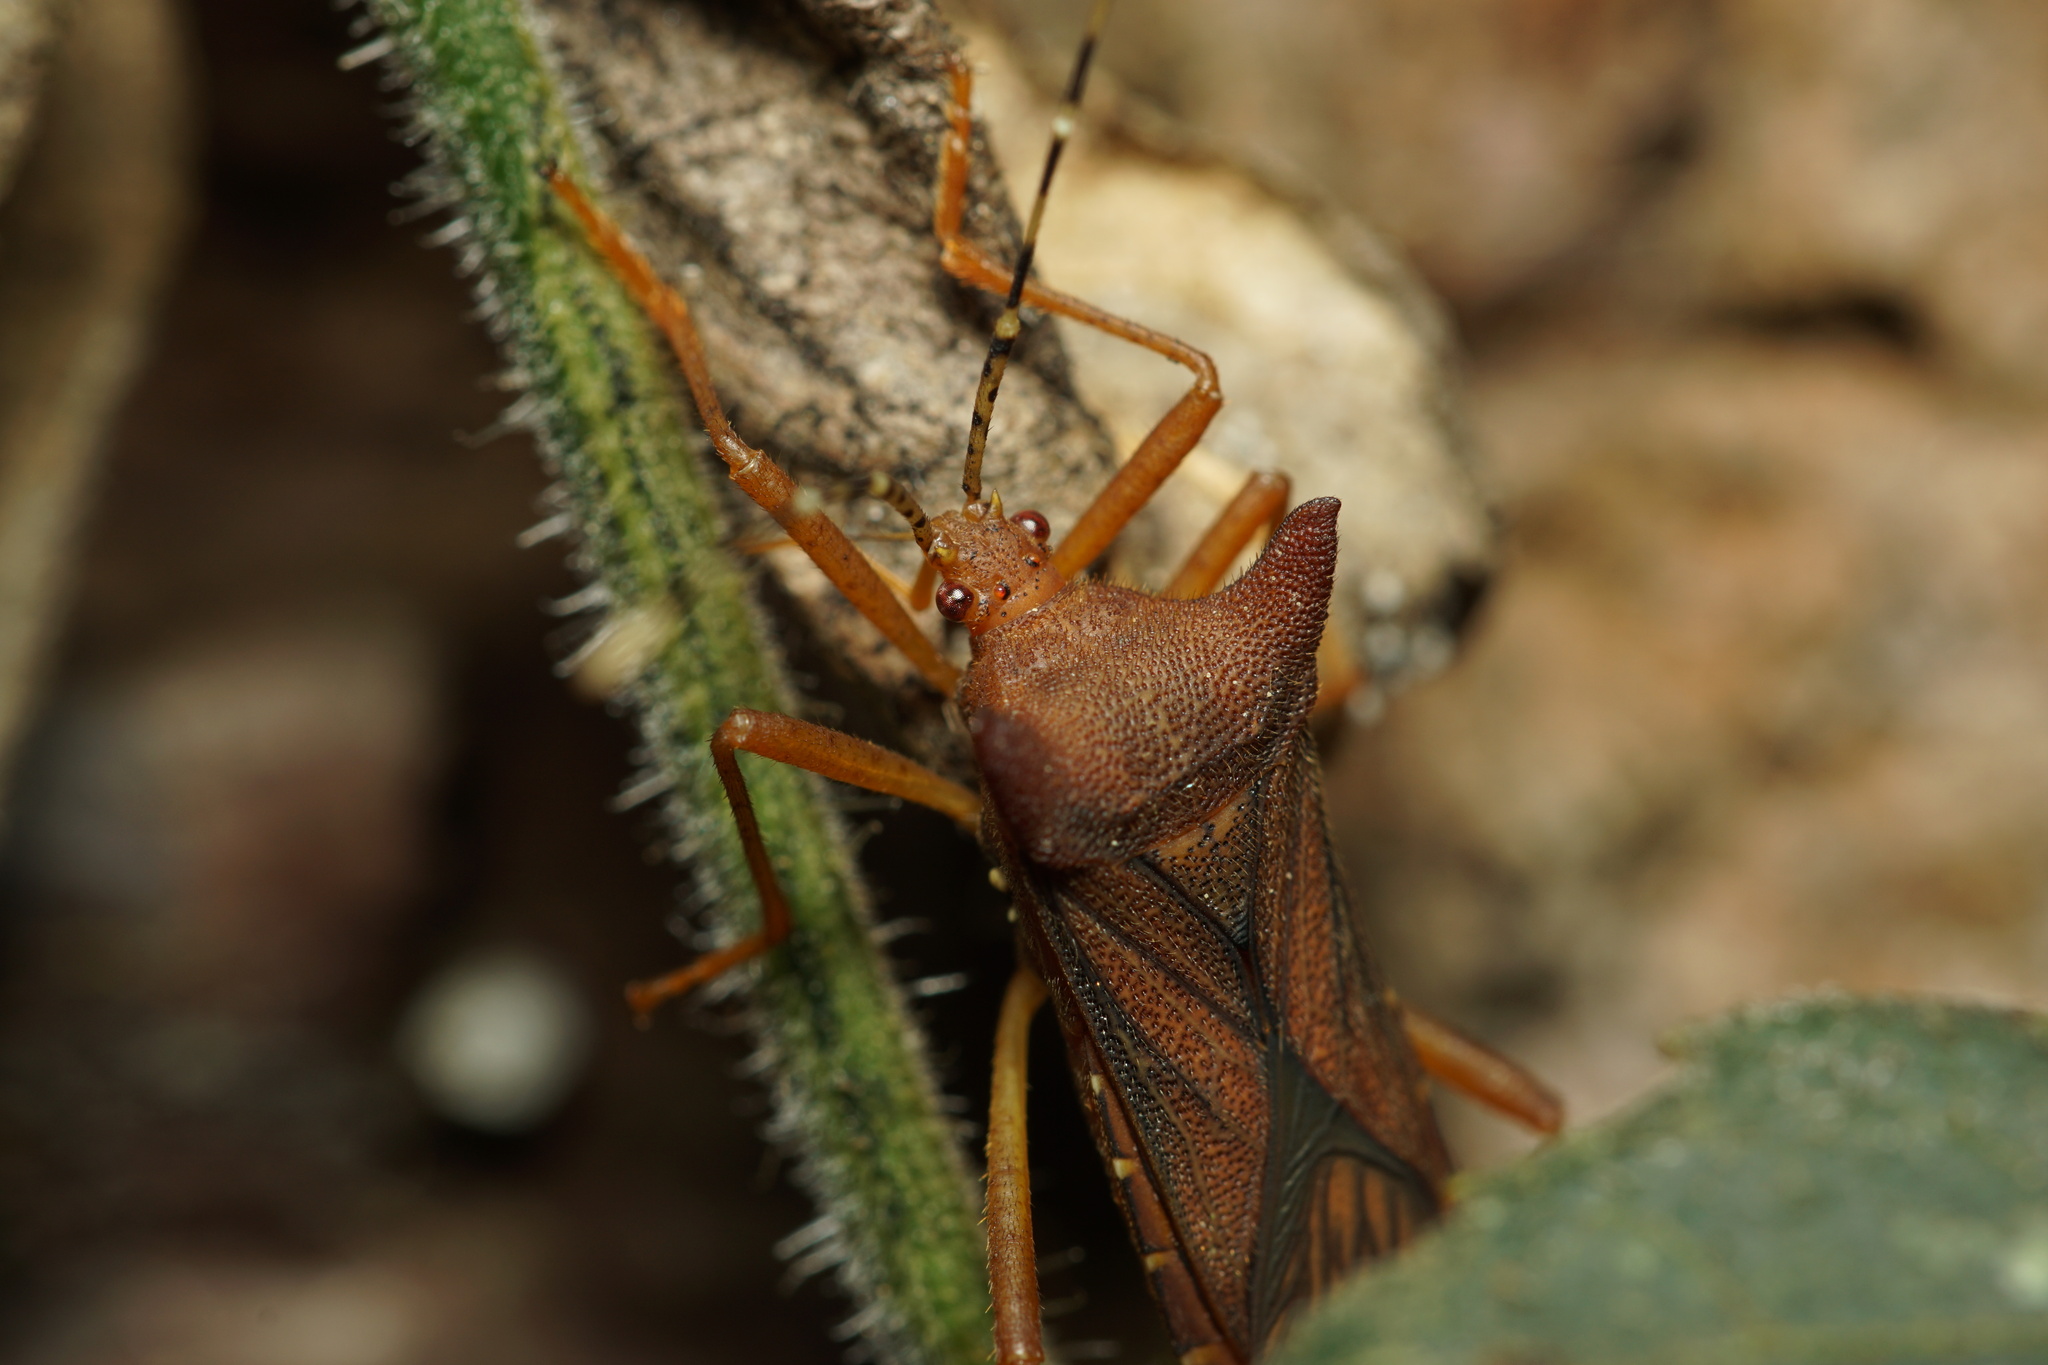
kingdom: Animalia
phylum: Arthropoda
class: Insecta
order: Hemiptera
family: Coreidae
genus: Anasa
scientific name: Anasa cornuta
